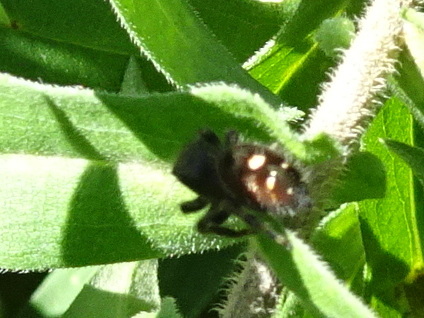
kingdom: Animalia
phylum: Arthropoda
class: Arachnida
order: Araneae
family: Salticidae
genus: Phidippus
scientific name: Phidippus audax
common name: Bold jumper
